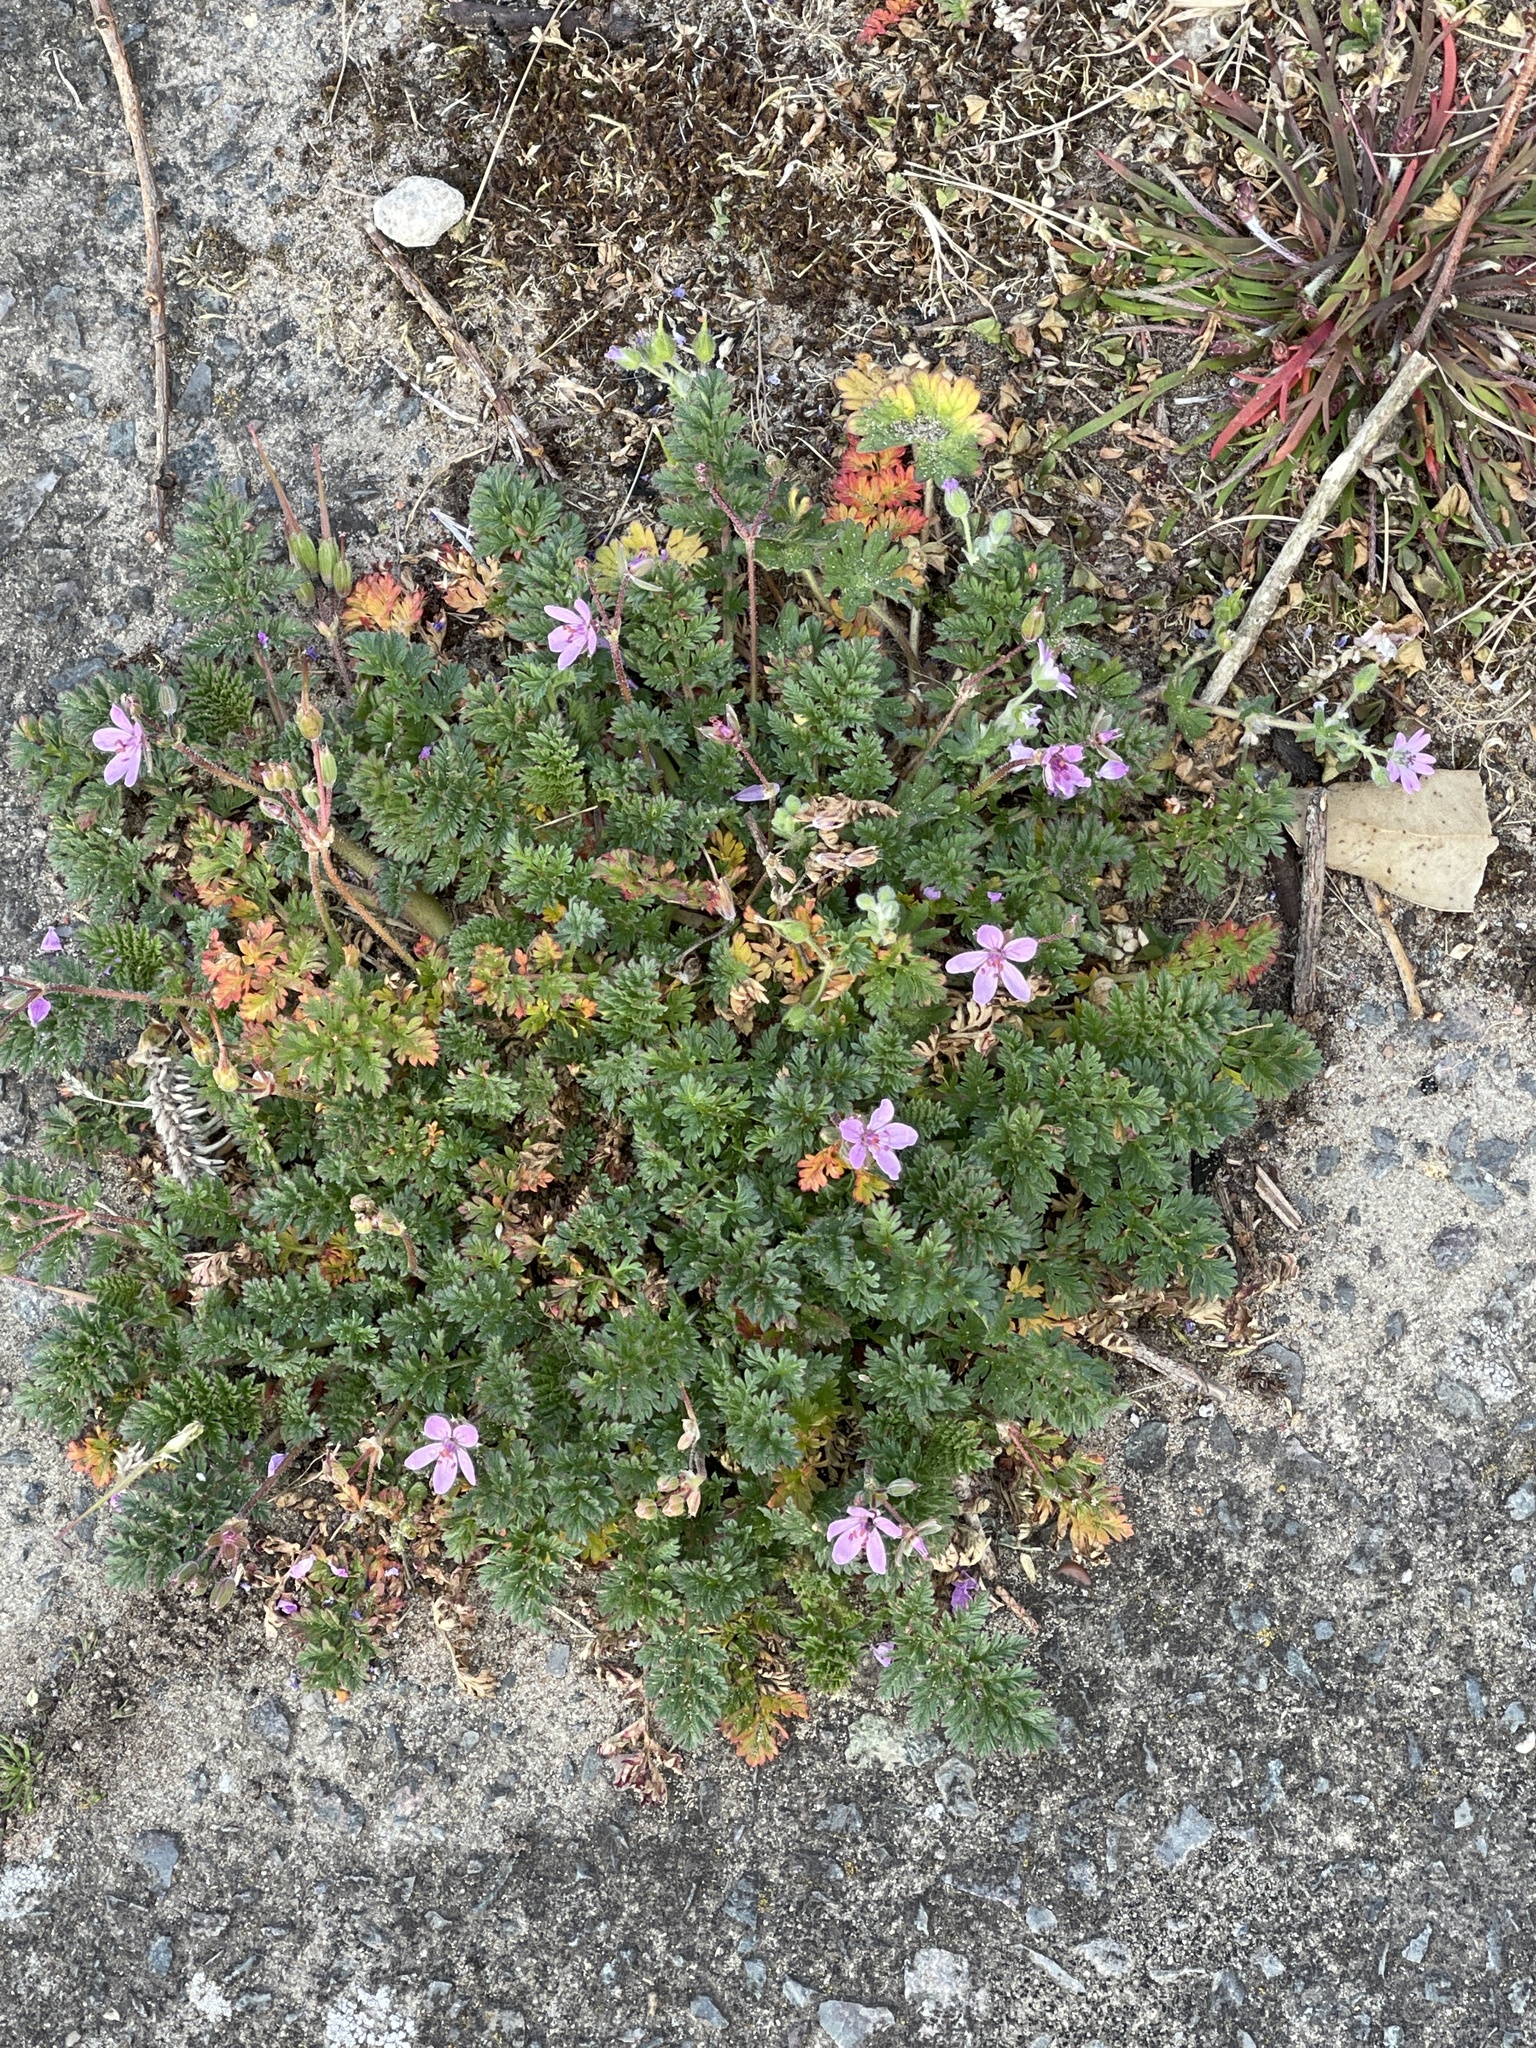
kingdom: Plantae
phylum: Tracheophyta
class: Magnoliopsida
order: Geraniales
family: Geraniaceae
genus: Erodium
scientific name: Erodium cicutarium
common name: Common stork's-bill
